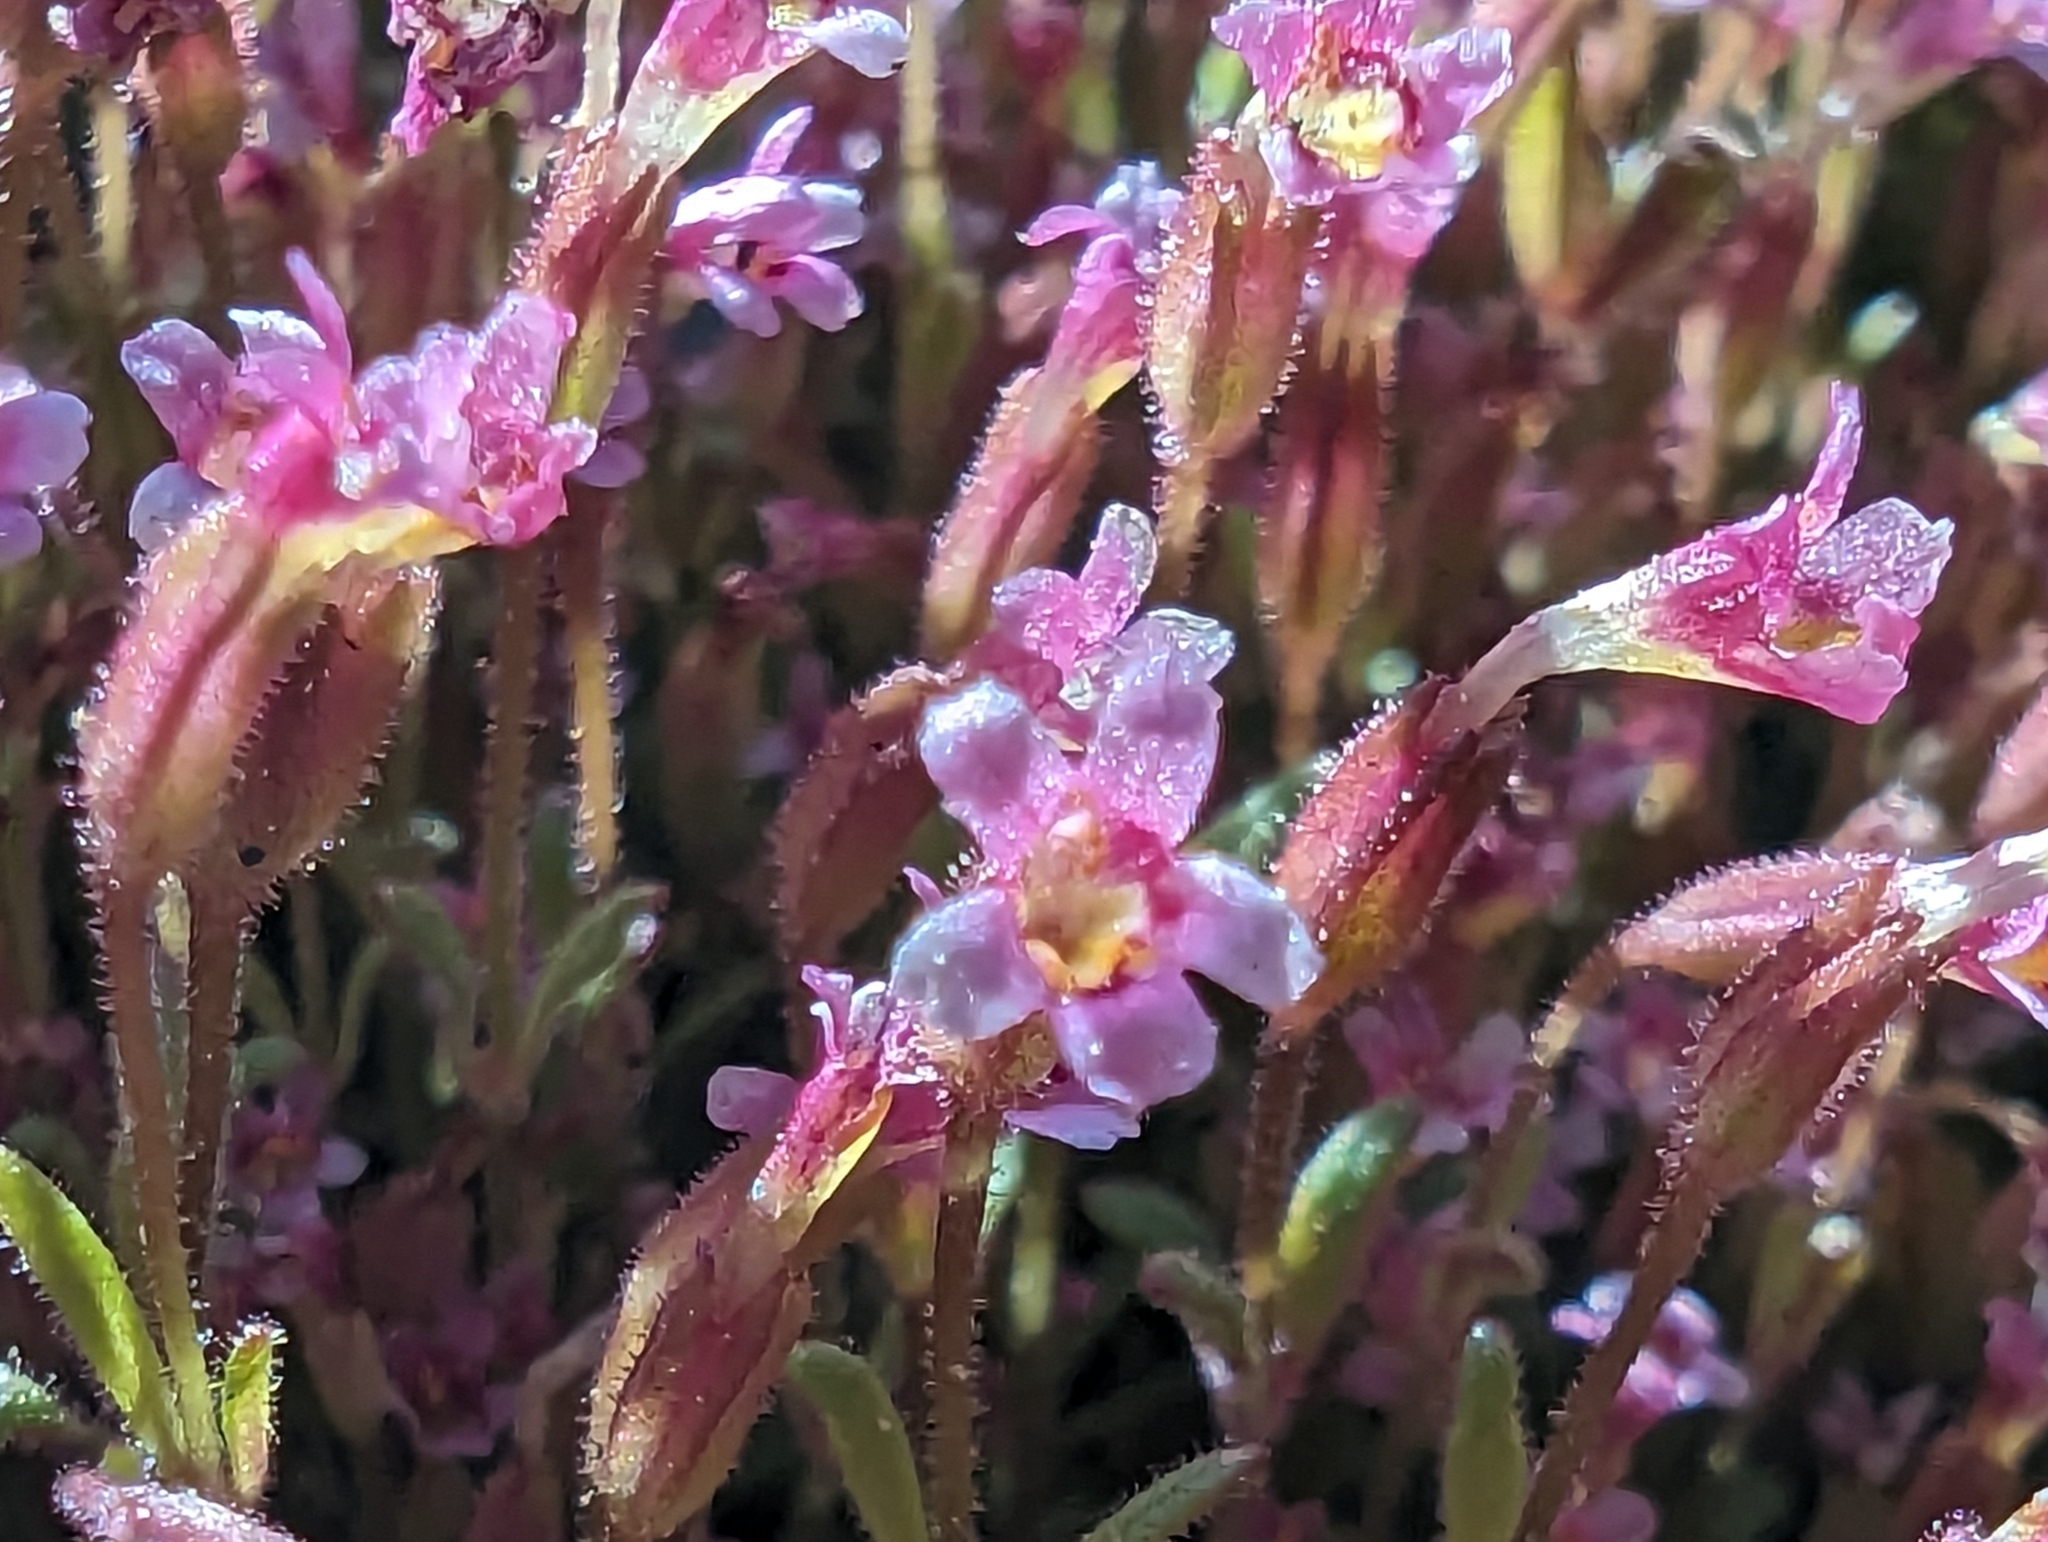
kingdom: Plantae
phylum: Tracheophyta
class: Magnoliopsida
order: Lamiales
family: Phrymaceae
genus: Erythranthe
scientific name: Erythranthe breweri
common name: Brewer's monkeyflower
